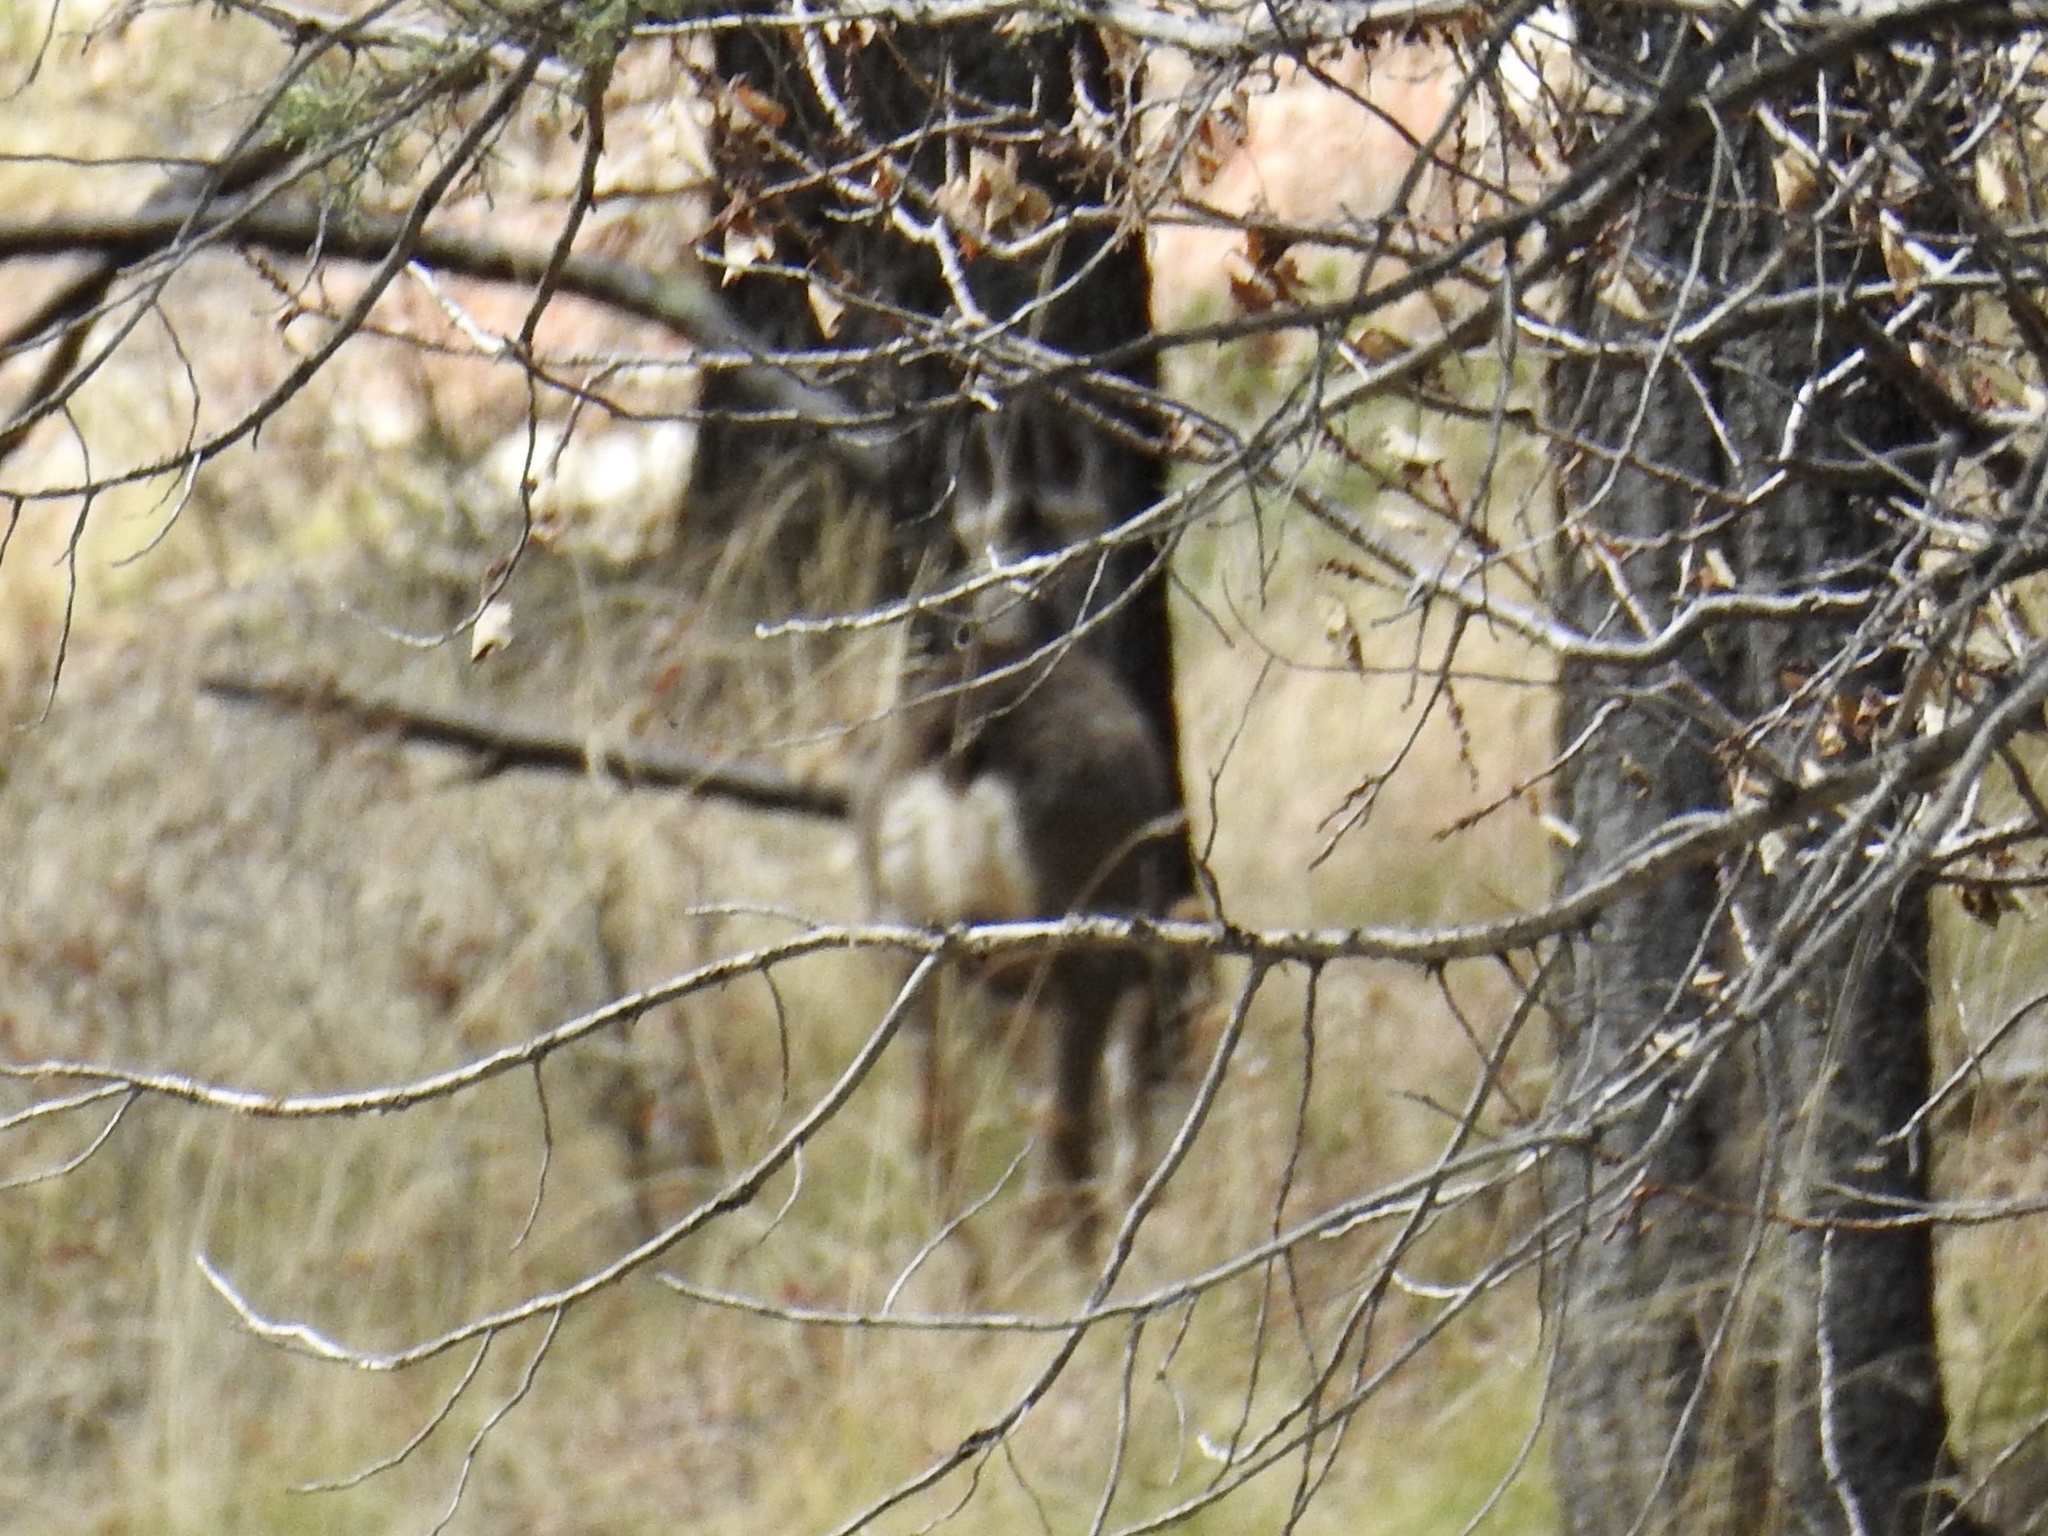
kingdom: Animalia
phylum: Chordata
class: Mammalia
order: Artiodactyla
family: Cervidae
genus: Odocoileus
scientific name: Odocoileus hemionus
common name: Mule deer
